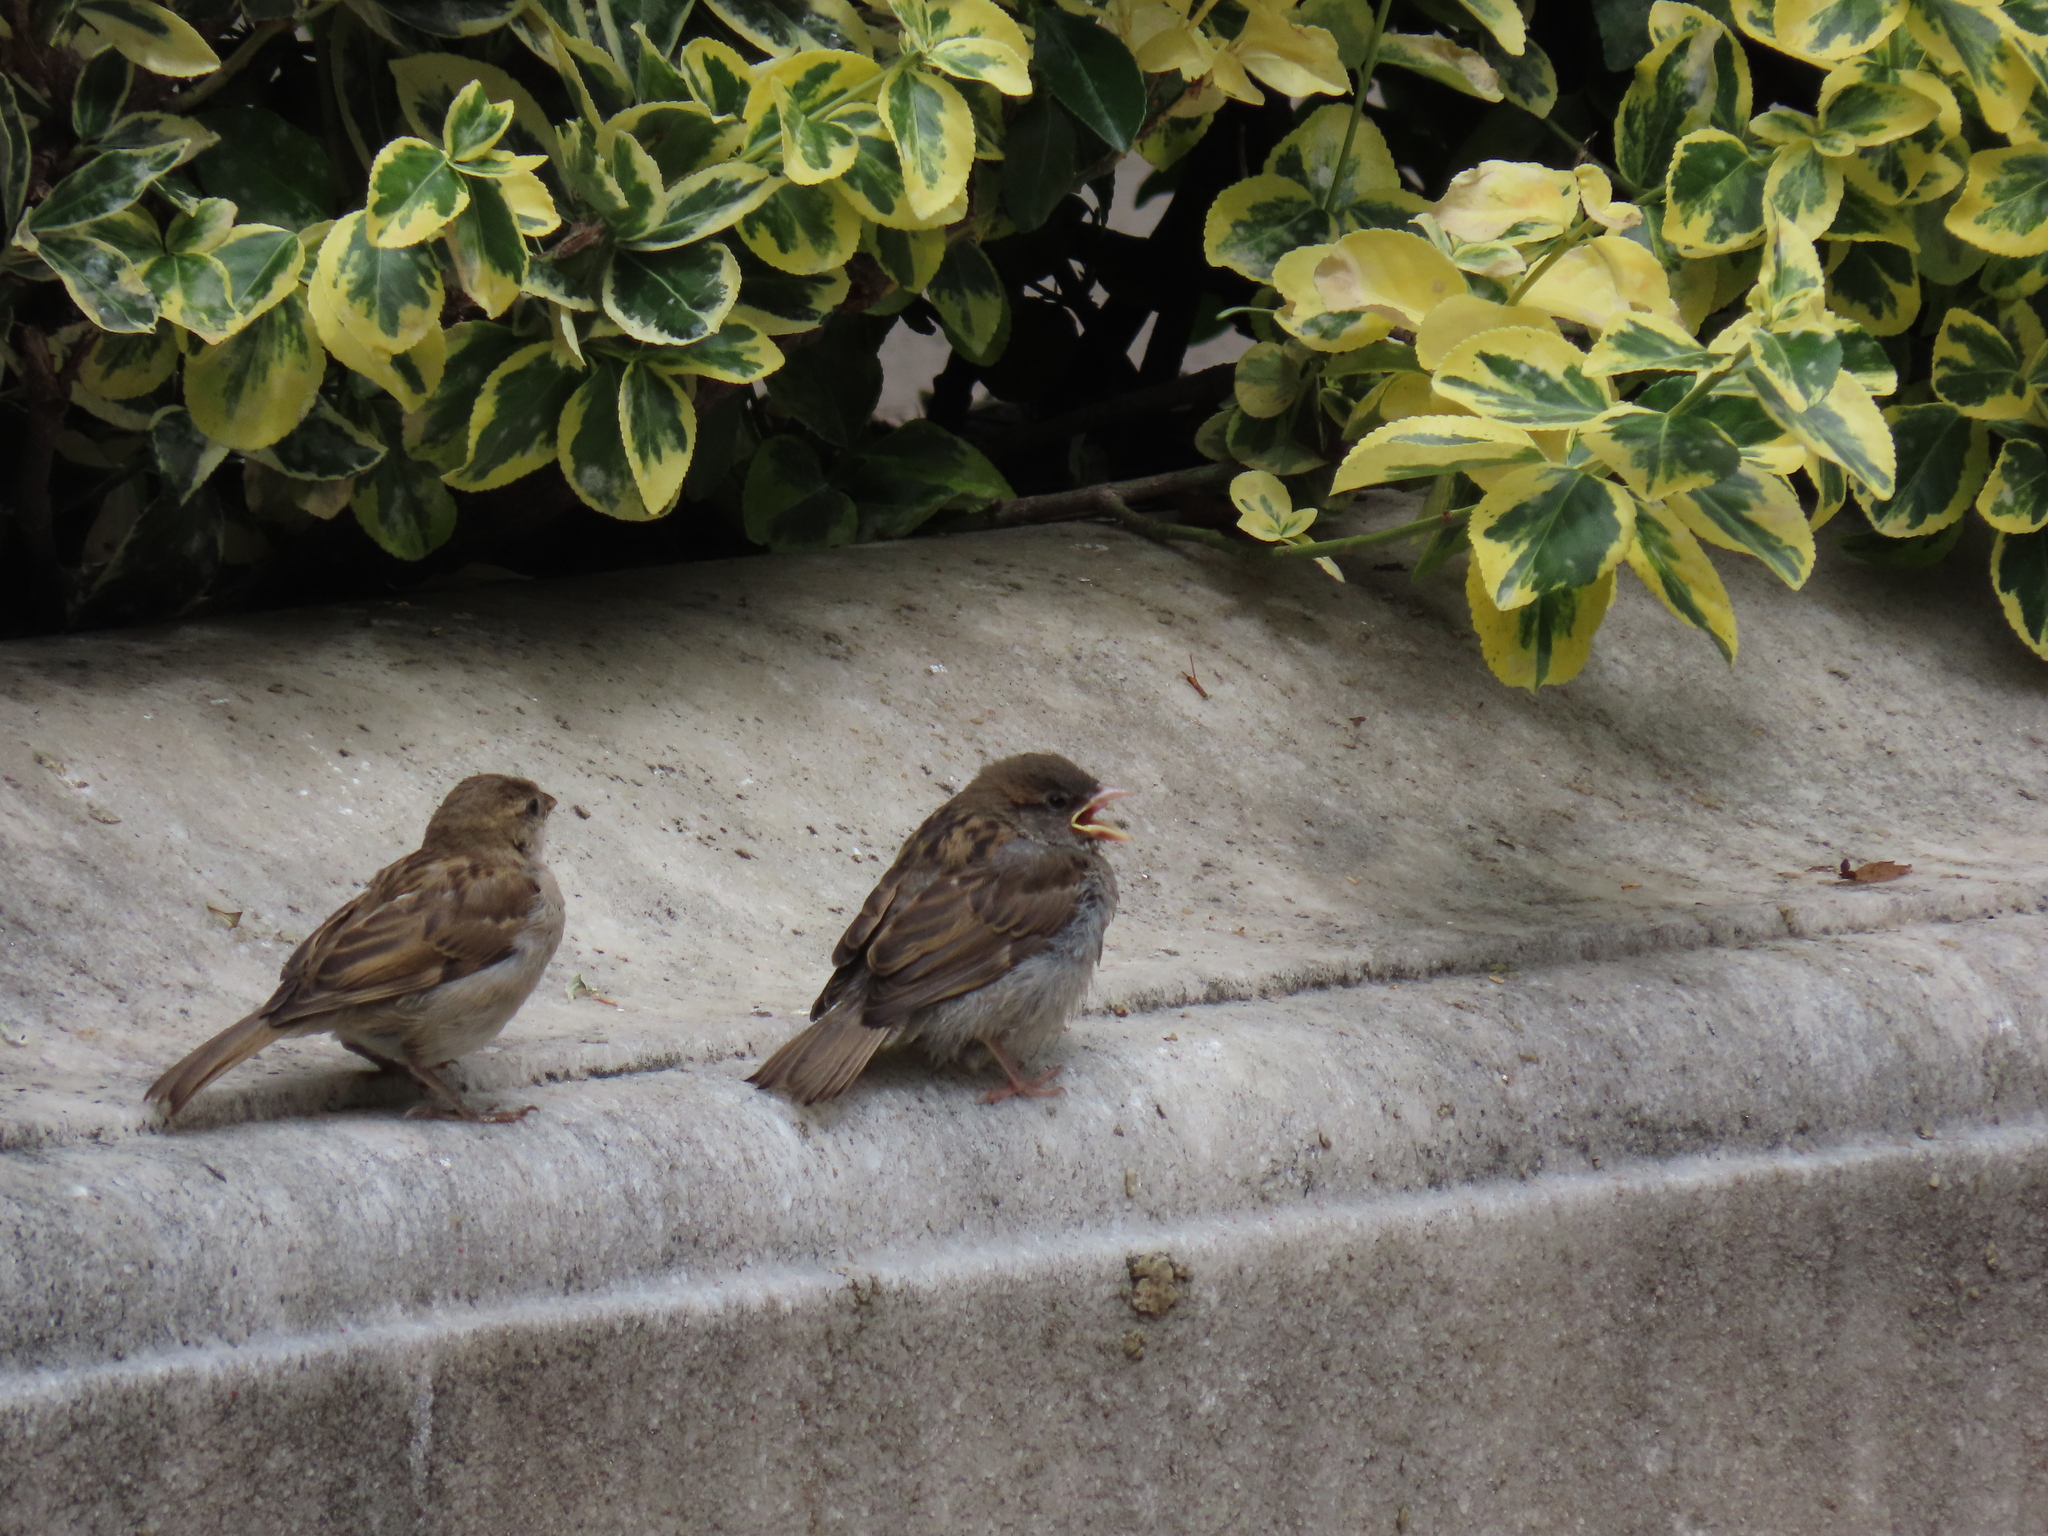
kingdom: Animalia
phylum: Chordata
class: Aves
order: Passeriformes
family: Passeridae
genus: Passer
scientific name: Passer domesticus
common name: House sparrow
